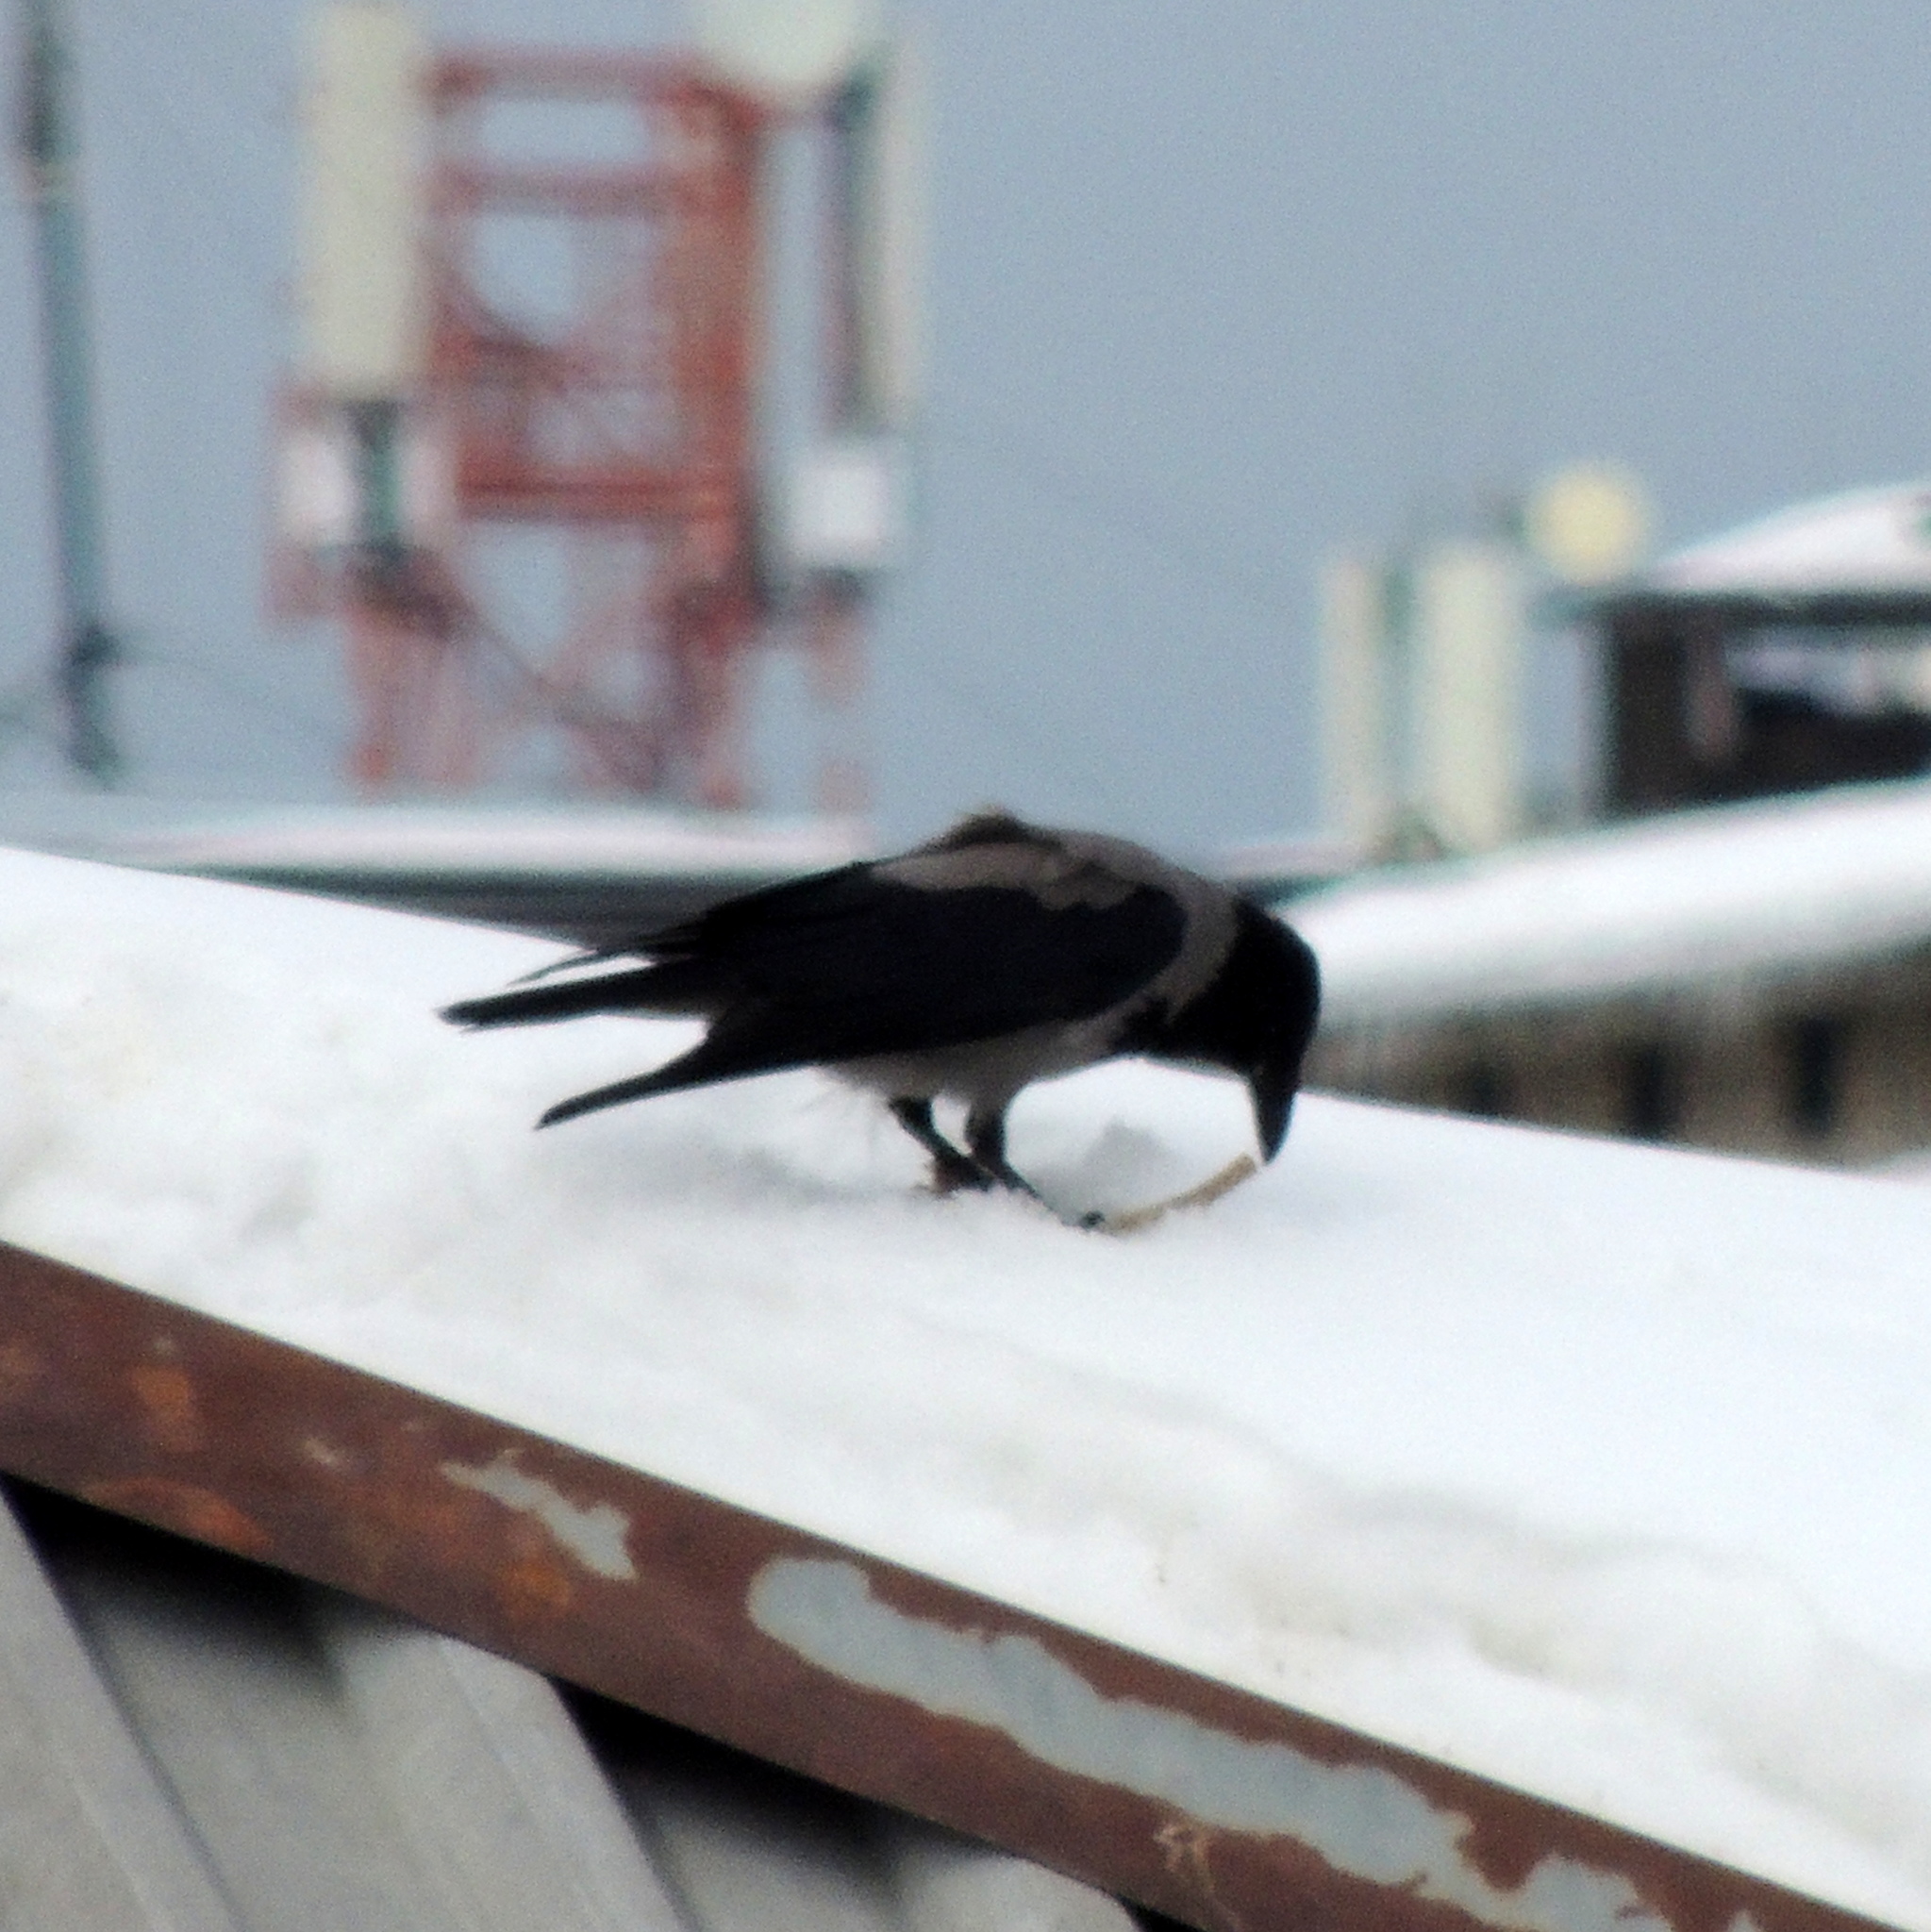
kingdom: Animalia
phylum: Chordata
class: Aves
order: Passeriformes
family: Corvidae
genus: Corvus
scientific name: Corvus cornix
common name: Hooded crow
